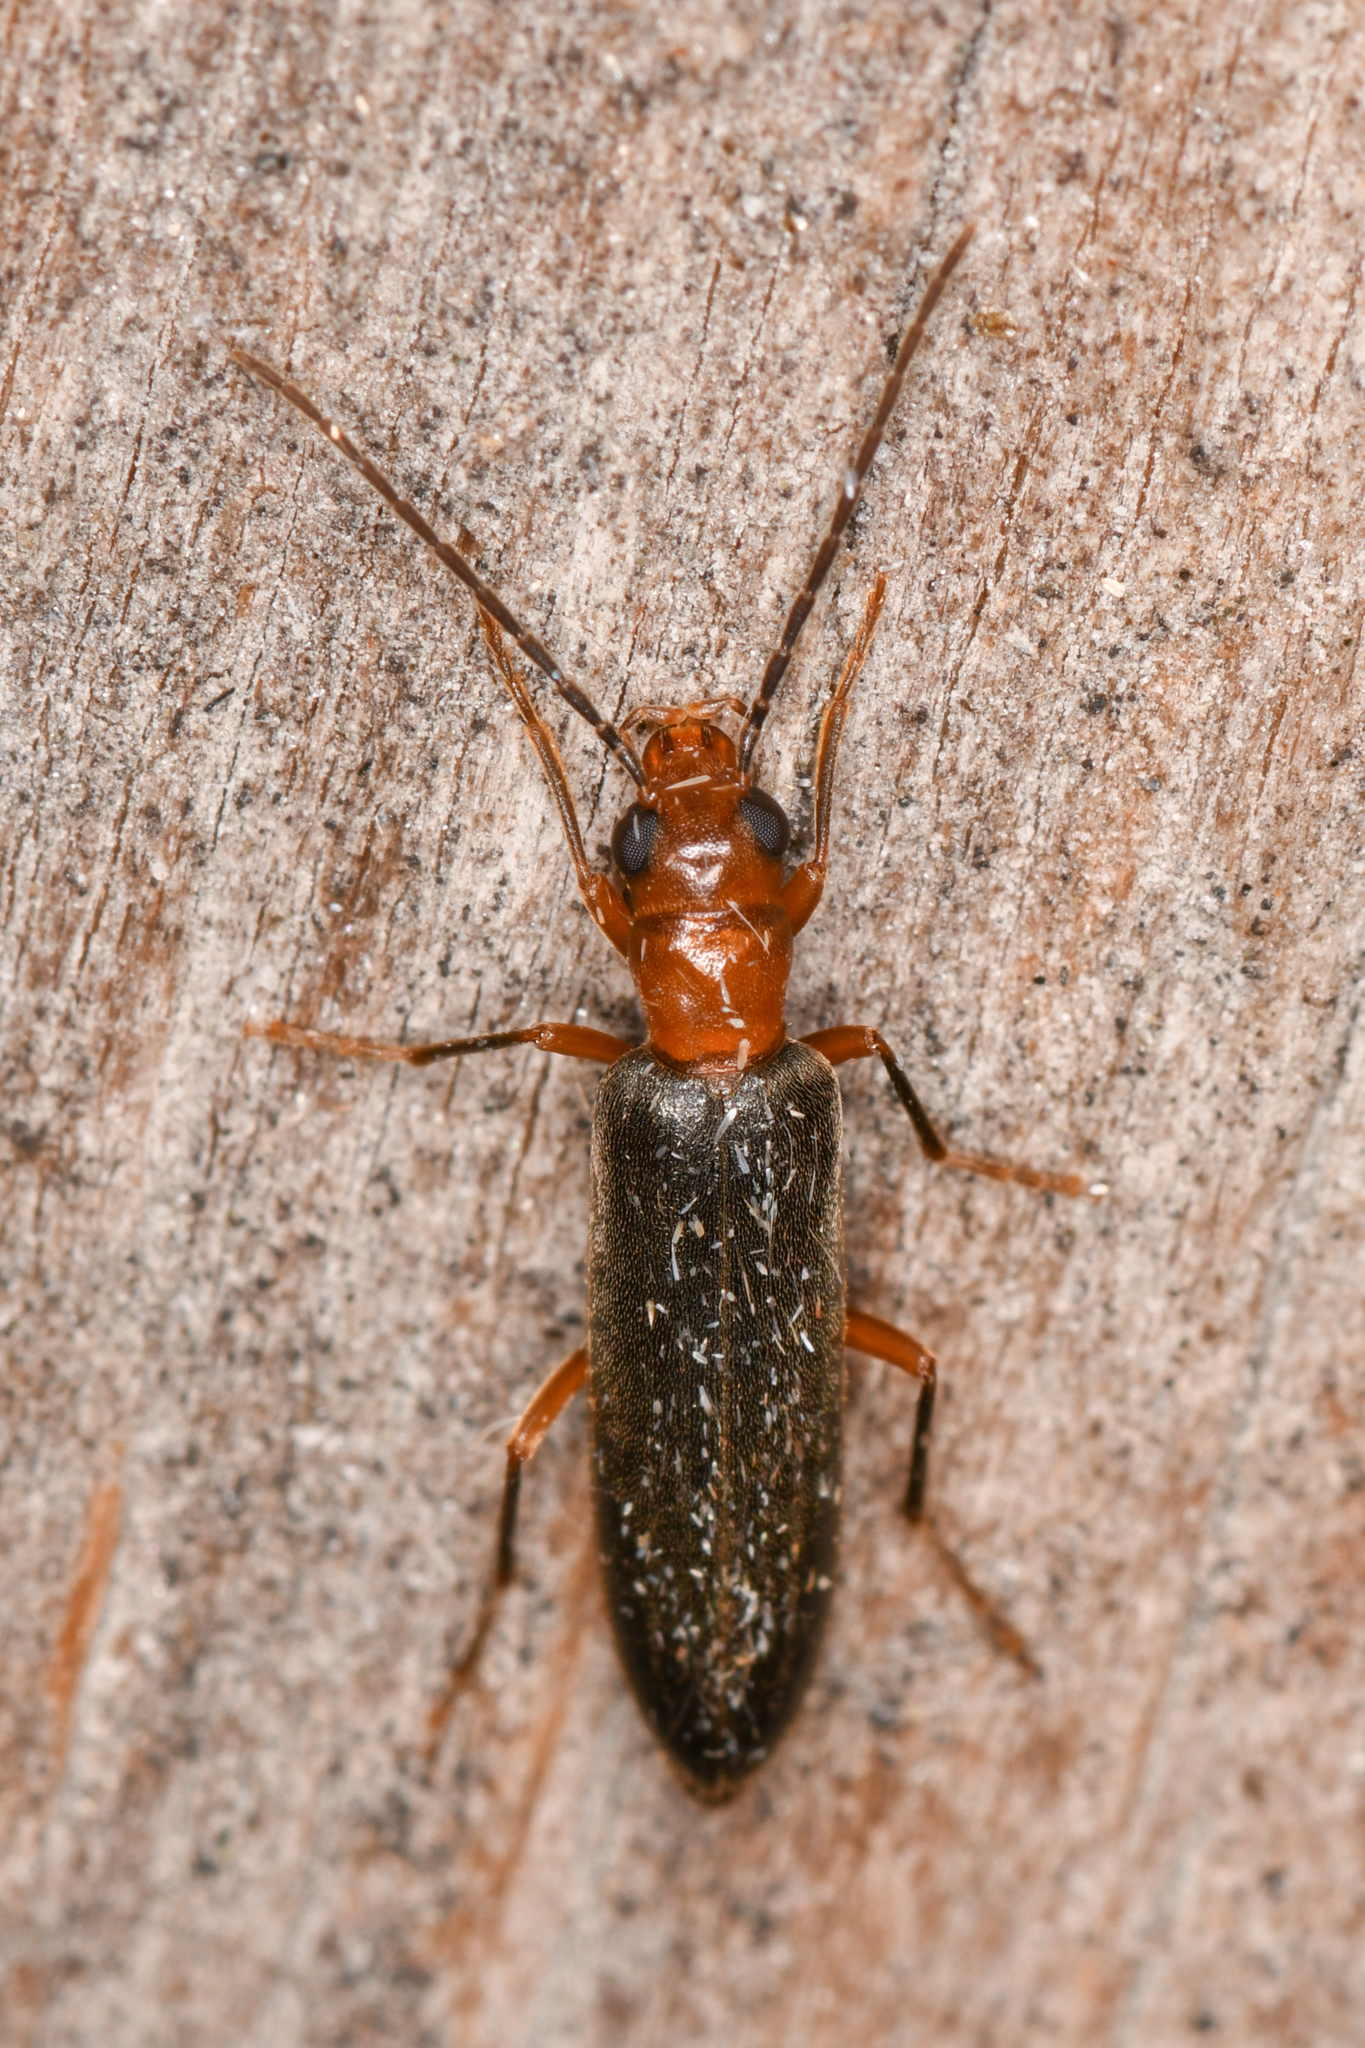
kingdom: Animalia
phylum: Arthropoda
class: Insecta
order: Coleoptera
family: Oedemeridae
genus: Xanthochroina
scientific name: Xanthochroina bicolor
